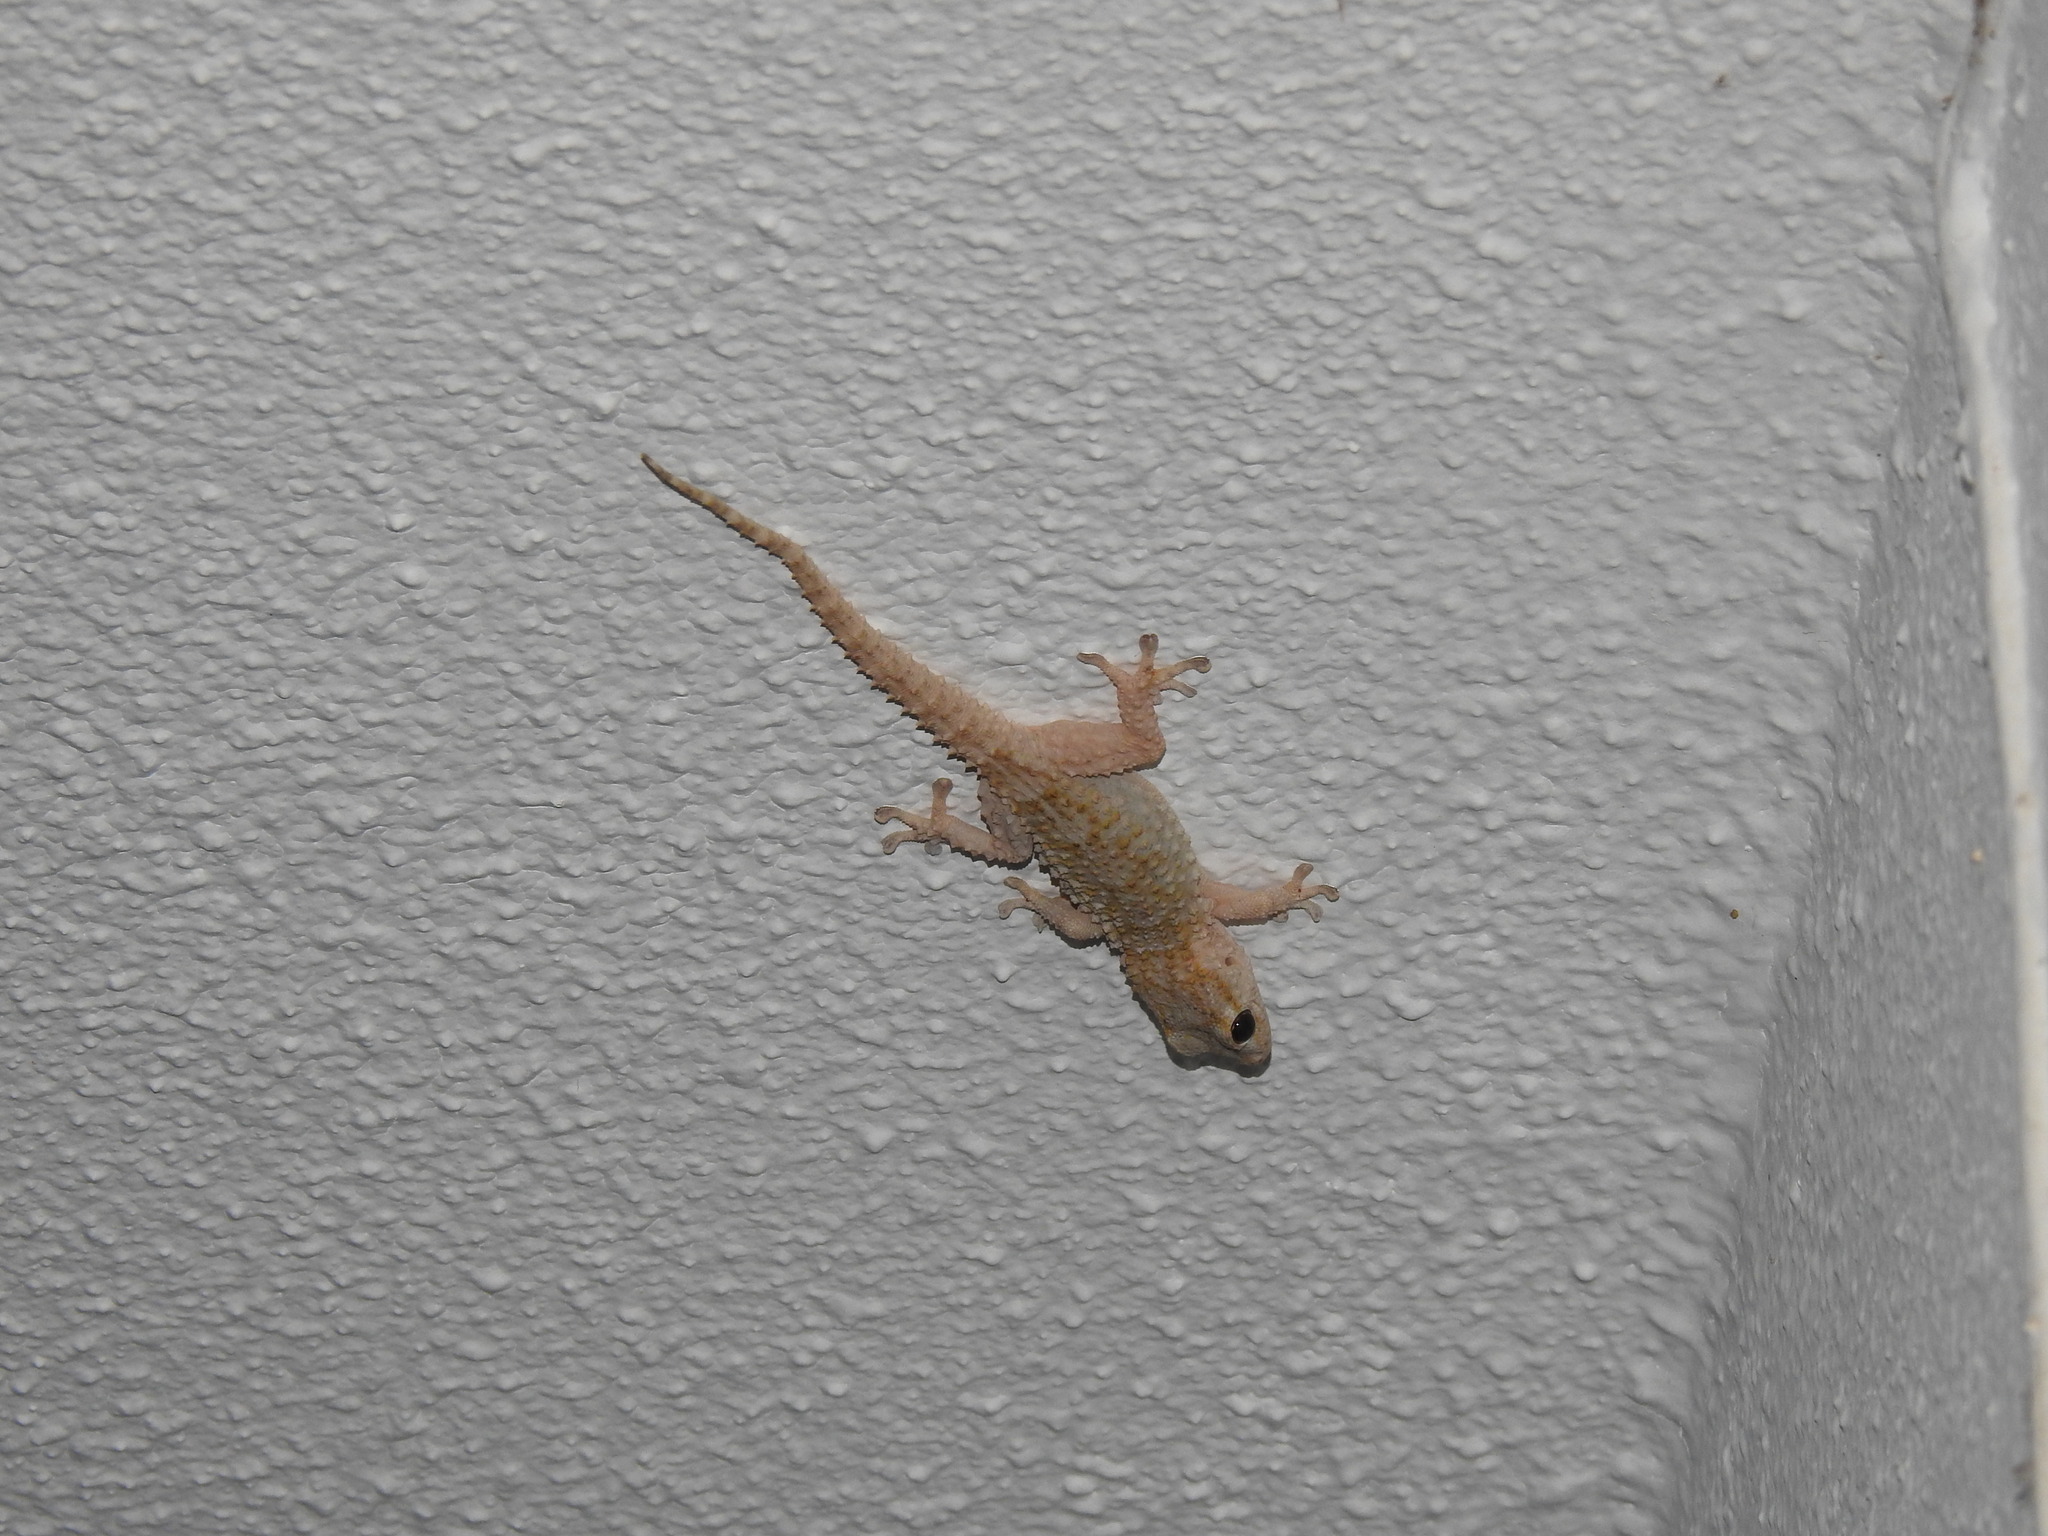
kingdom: Animalia
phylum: Chordata
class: Squamata
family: Phyllodactylidae
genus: Tarentola
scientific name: Tarentola mauritanica
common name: Moorish gecko
